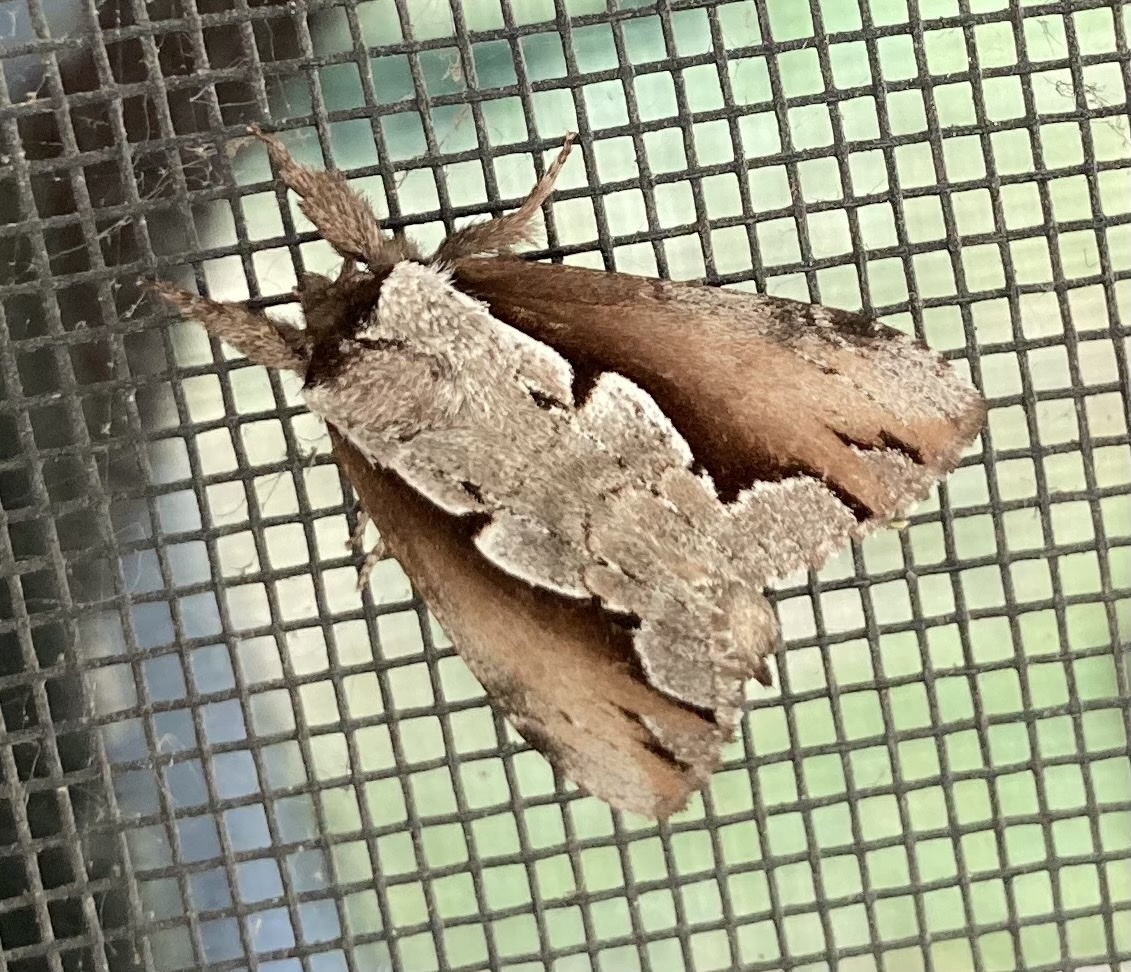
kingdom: Animalia
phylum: Arthropoda
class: Insecta
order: Lepidoptera
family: Notodontidae
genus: Nerice
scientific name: Nerice bidentata
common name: Double-toothed prominent
